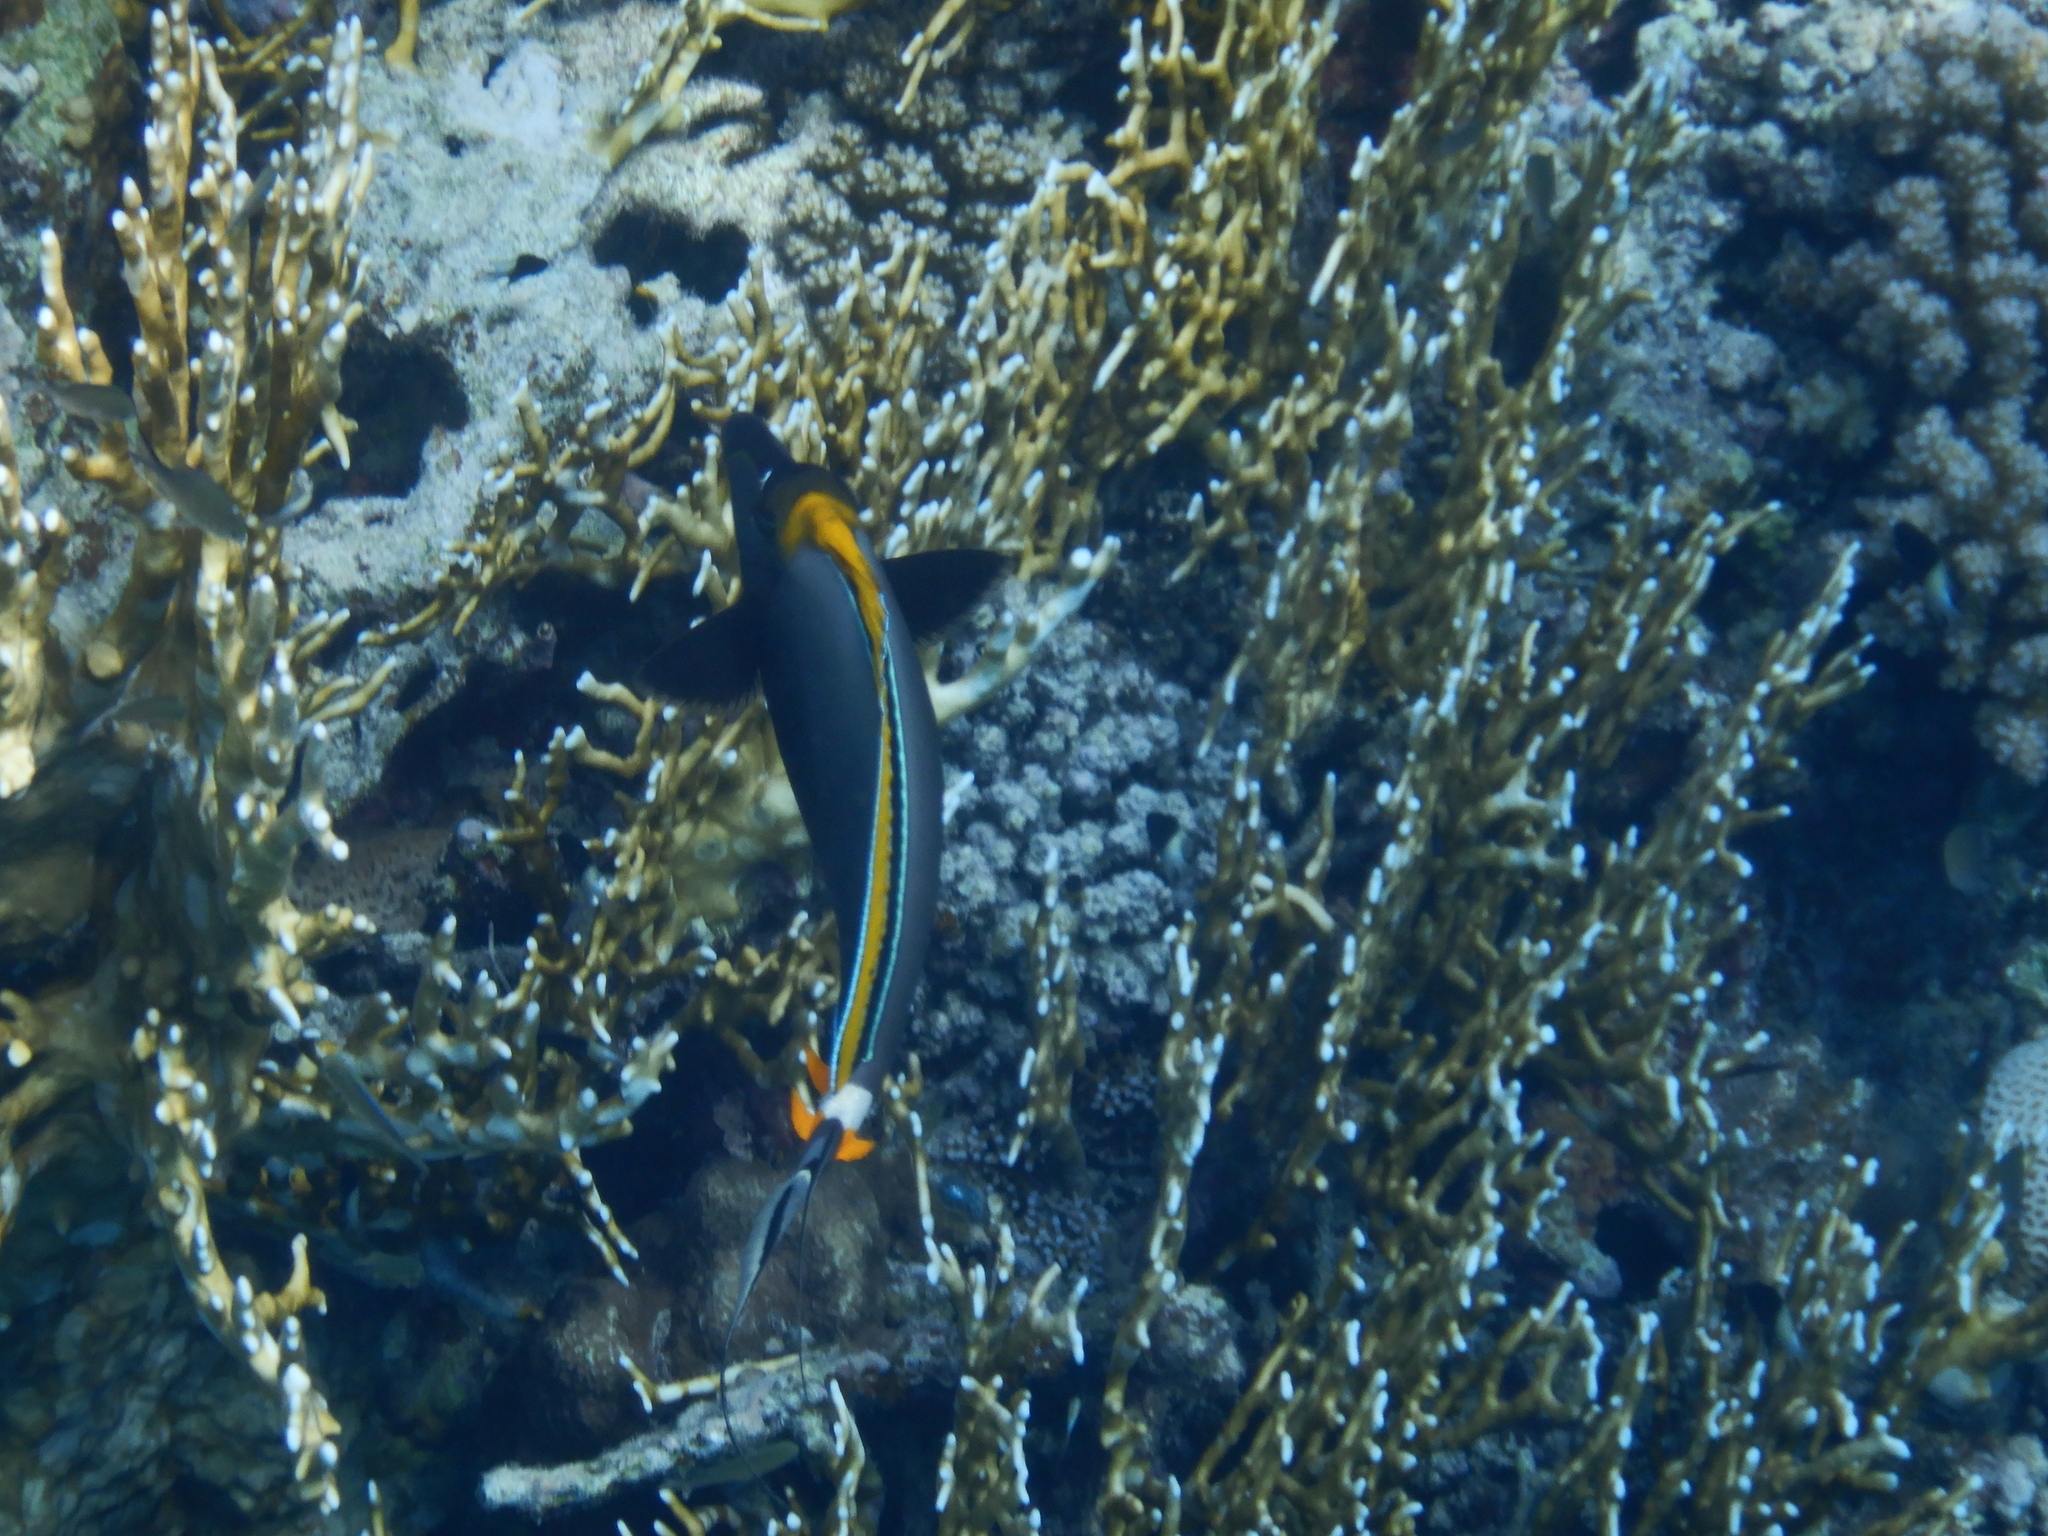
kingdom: Animalia
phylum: Chordata
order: Perciformes
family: Acanthuridae
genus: Naso
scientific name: Naso elegans
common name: Orangespine unicornfish
